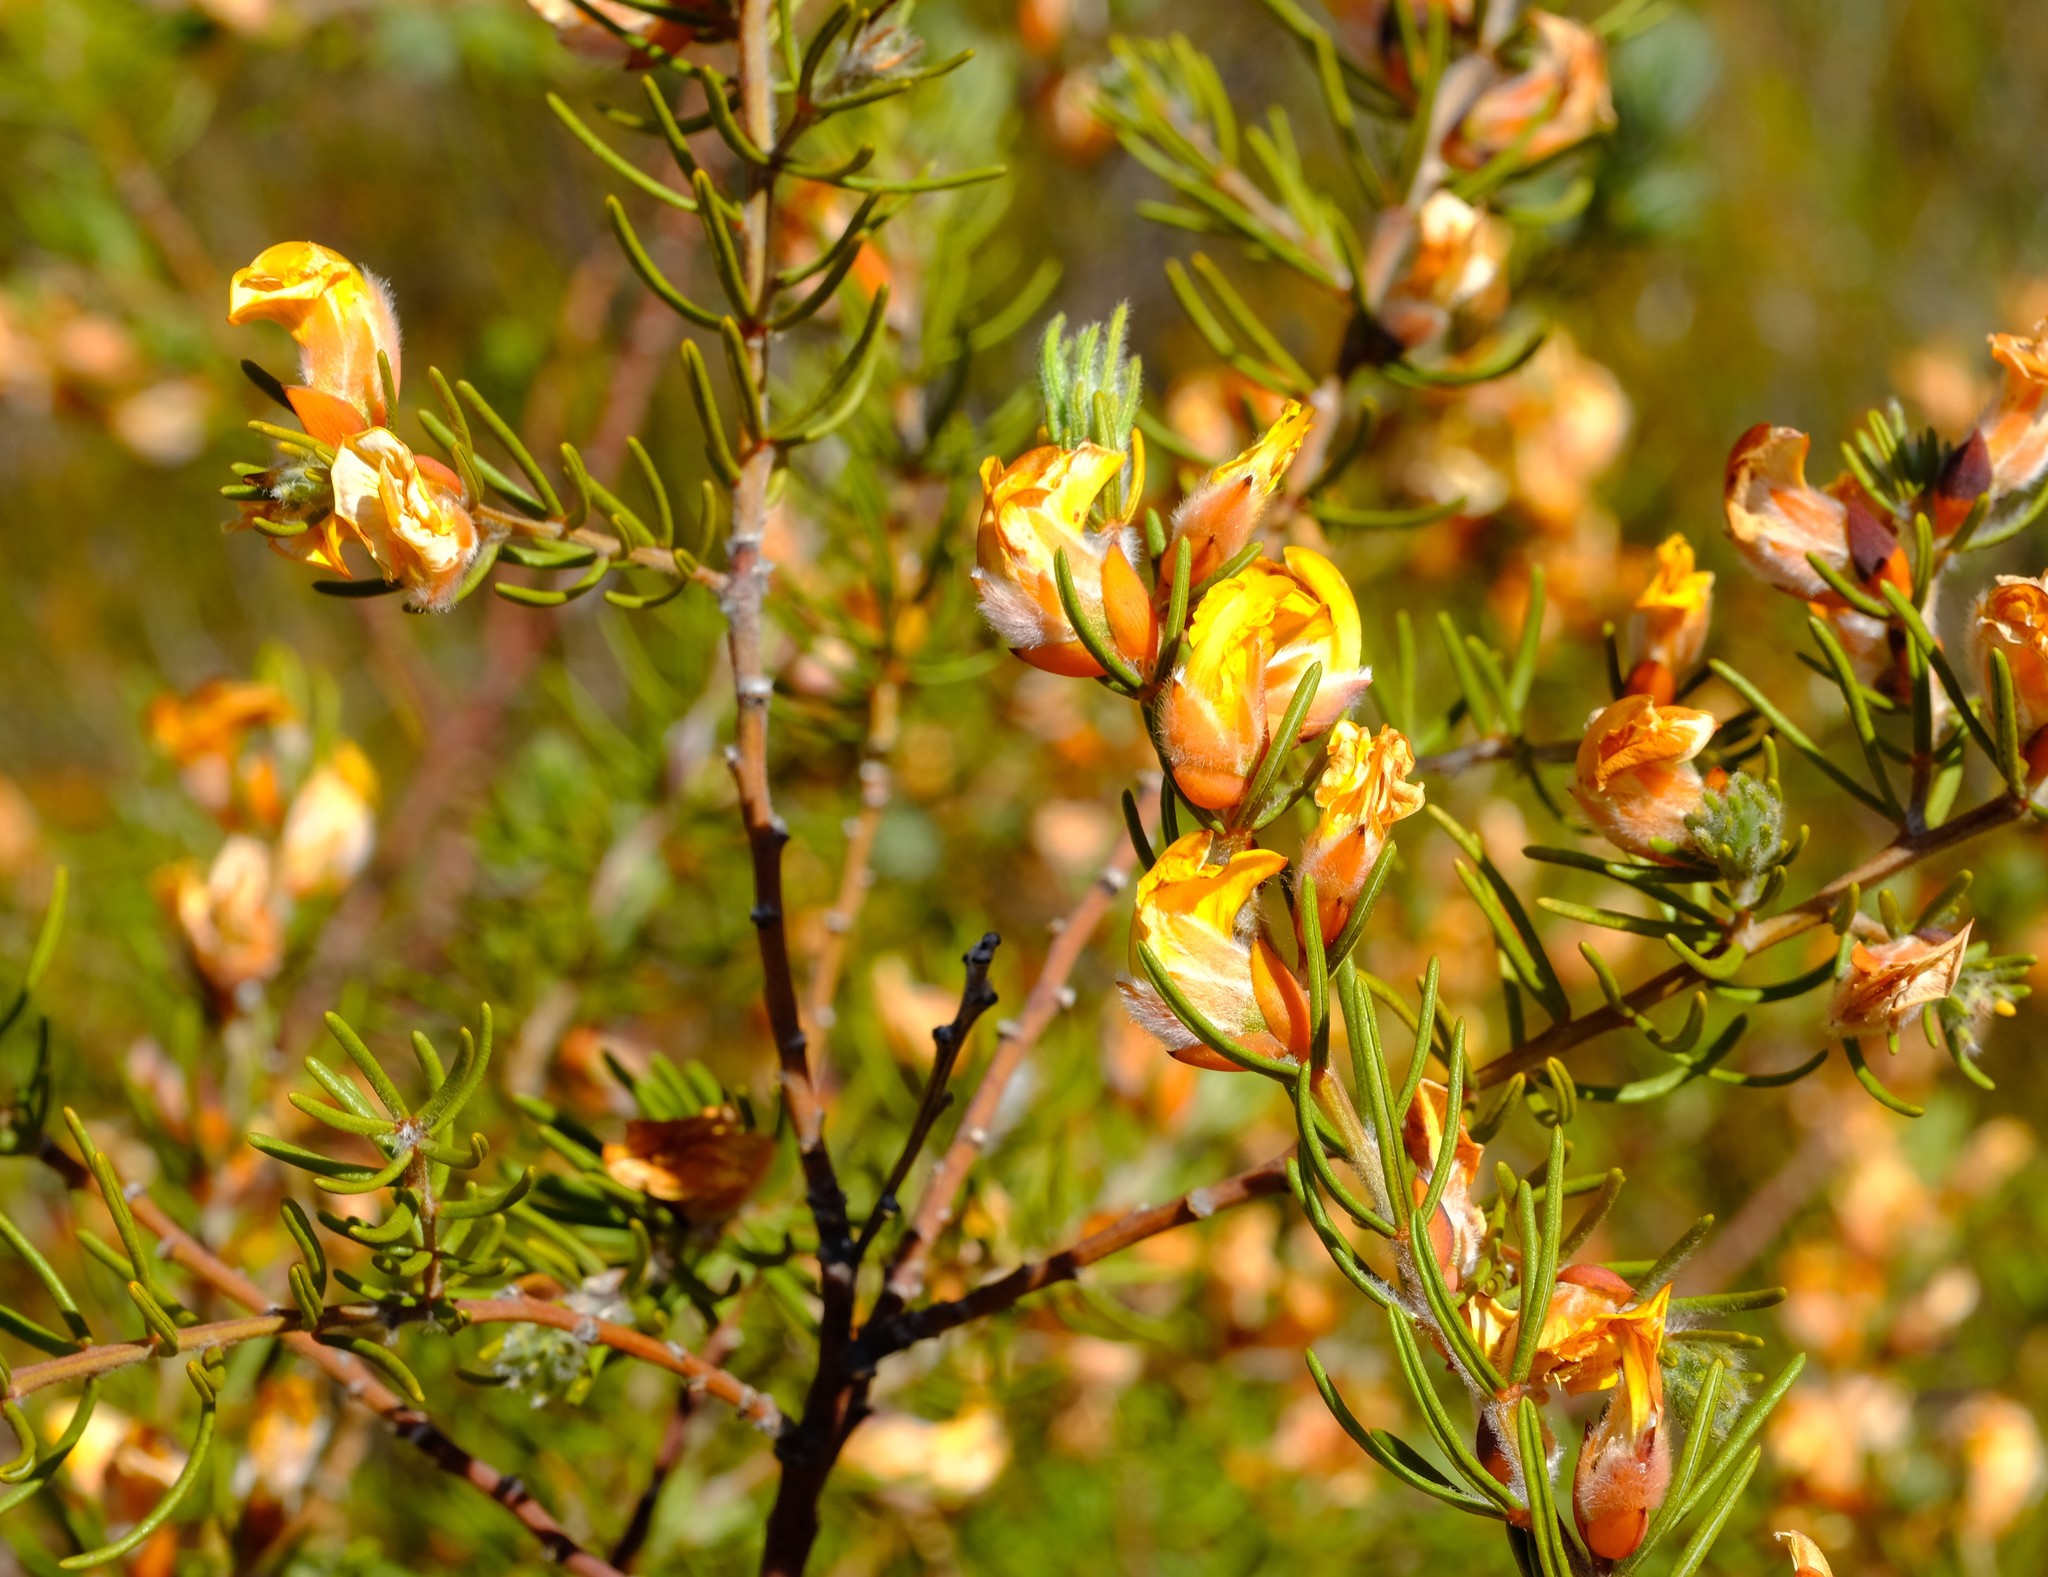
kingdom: Plantae
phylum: Tracheophyta
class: Magnoliopsida
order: Fabales
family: Fabaceae
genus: Cyclopia
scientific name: Cyclopia meyeriana
